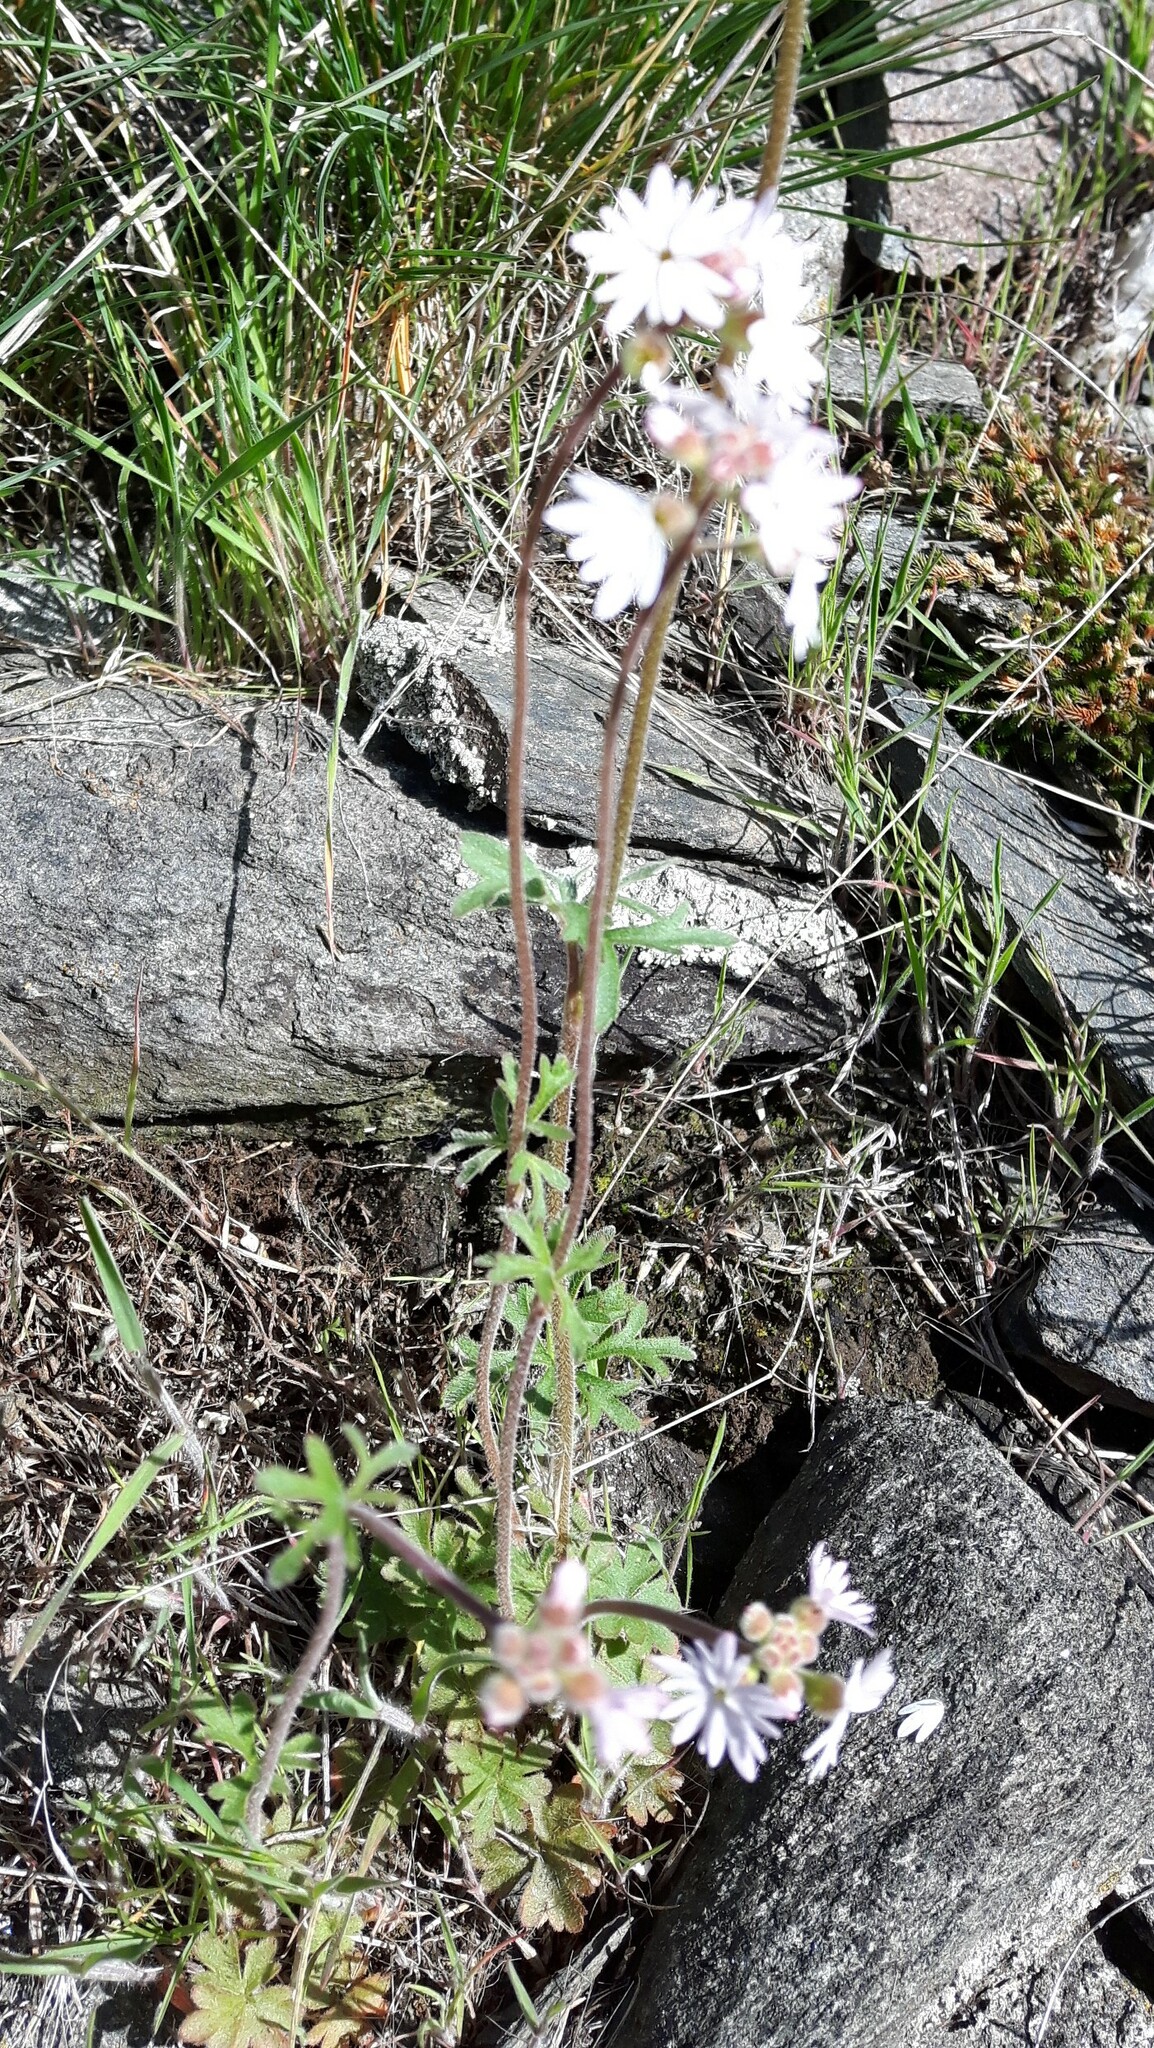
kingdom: Plantae
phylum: Tracheophyta
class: Magnoliopsida
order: Saxifragales
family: Saxifragaceae
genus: Lithophragma
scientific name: Lithophragma parviflorum
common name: Small-flowered fringe-cup
